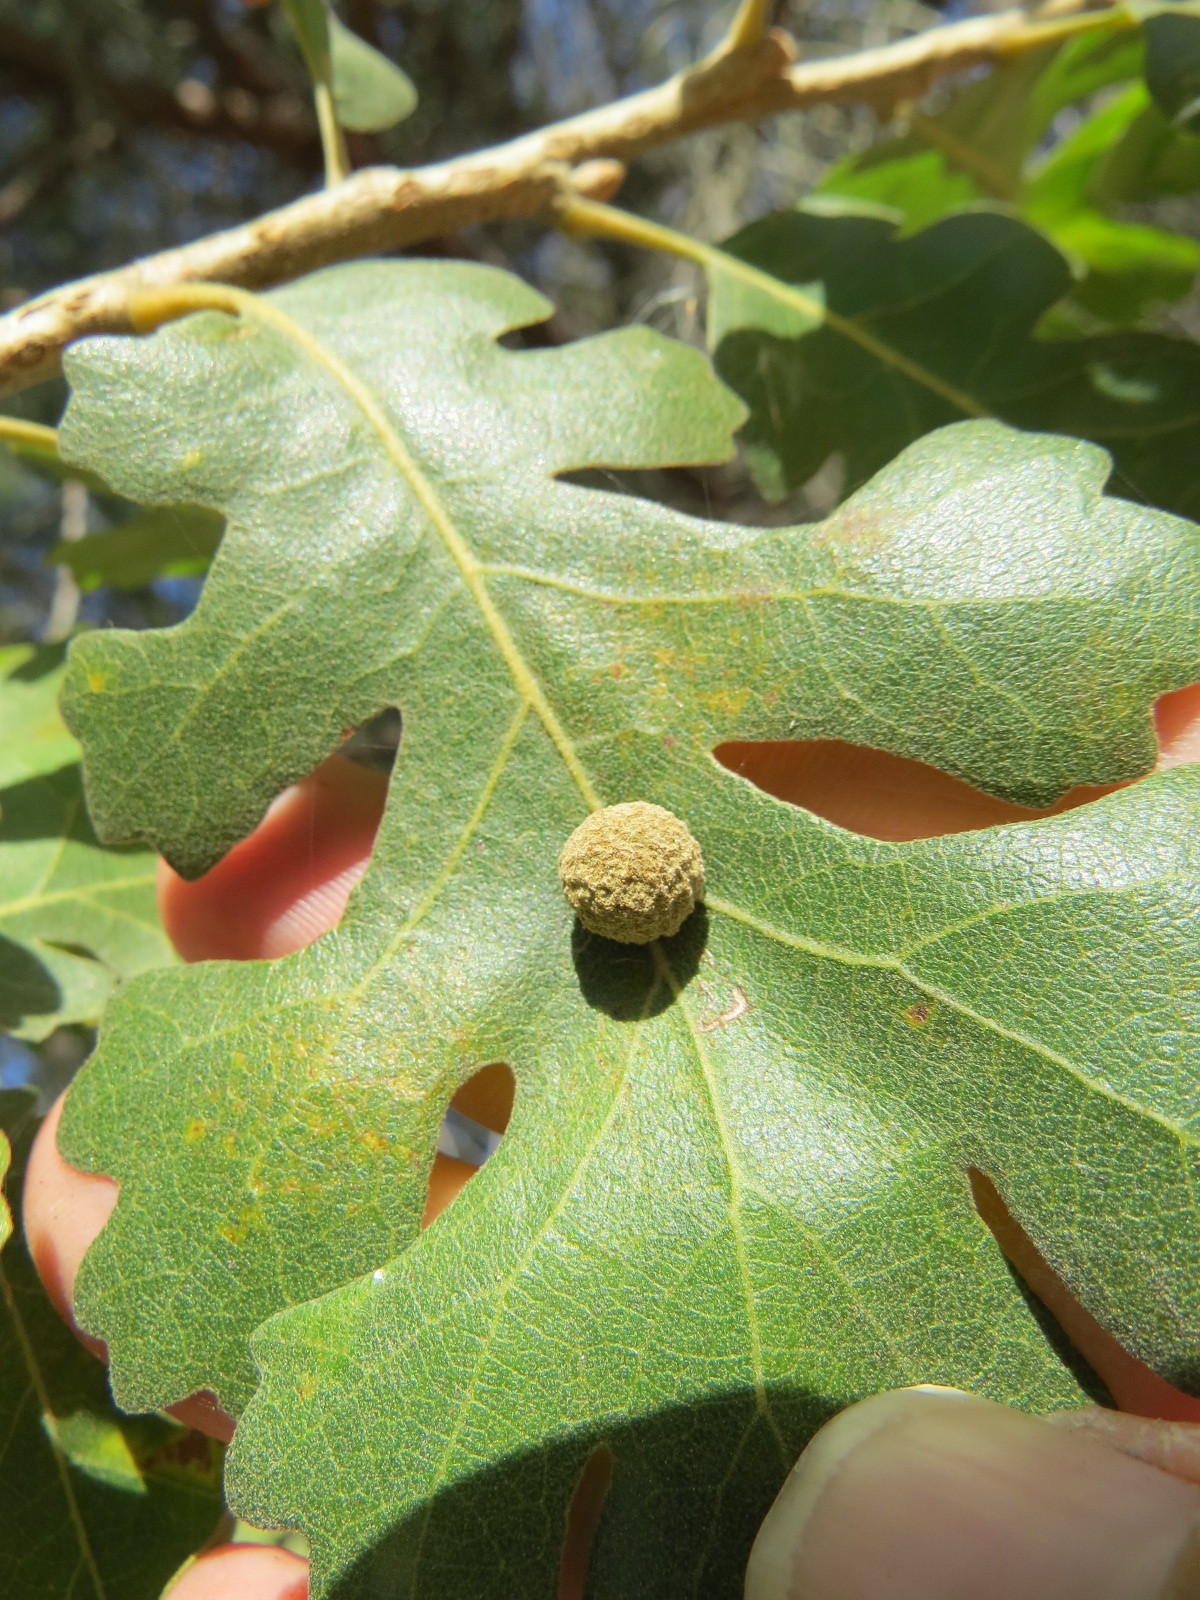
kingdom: Animalia
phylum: Arthropoda
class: Insecta
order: Hymenoptera
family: Cynipidae
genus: Cynips
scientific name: Cynips conspicua
